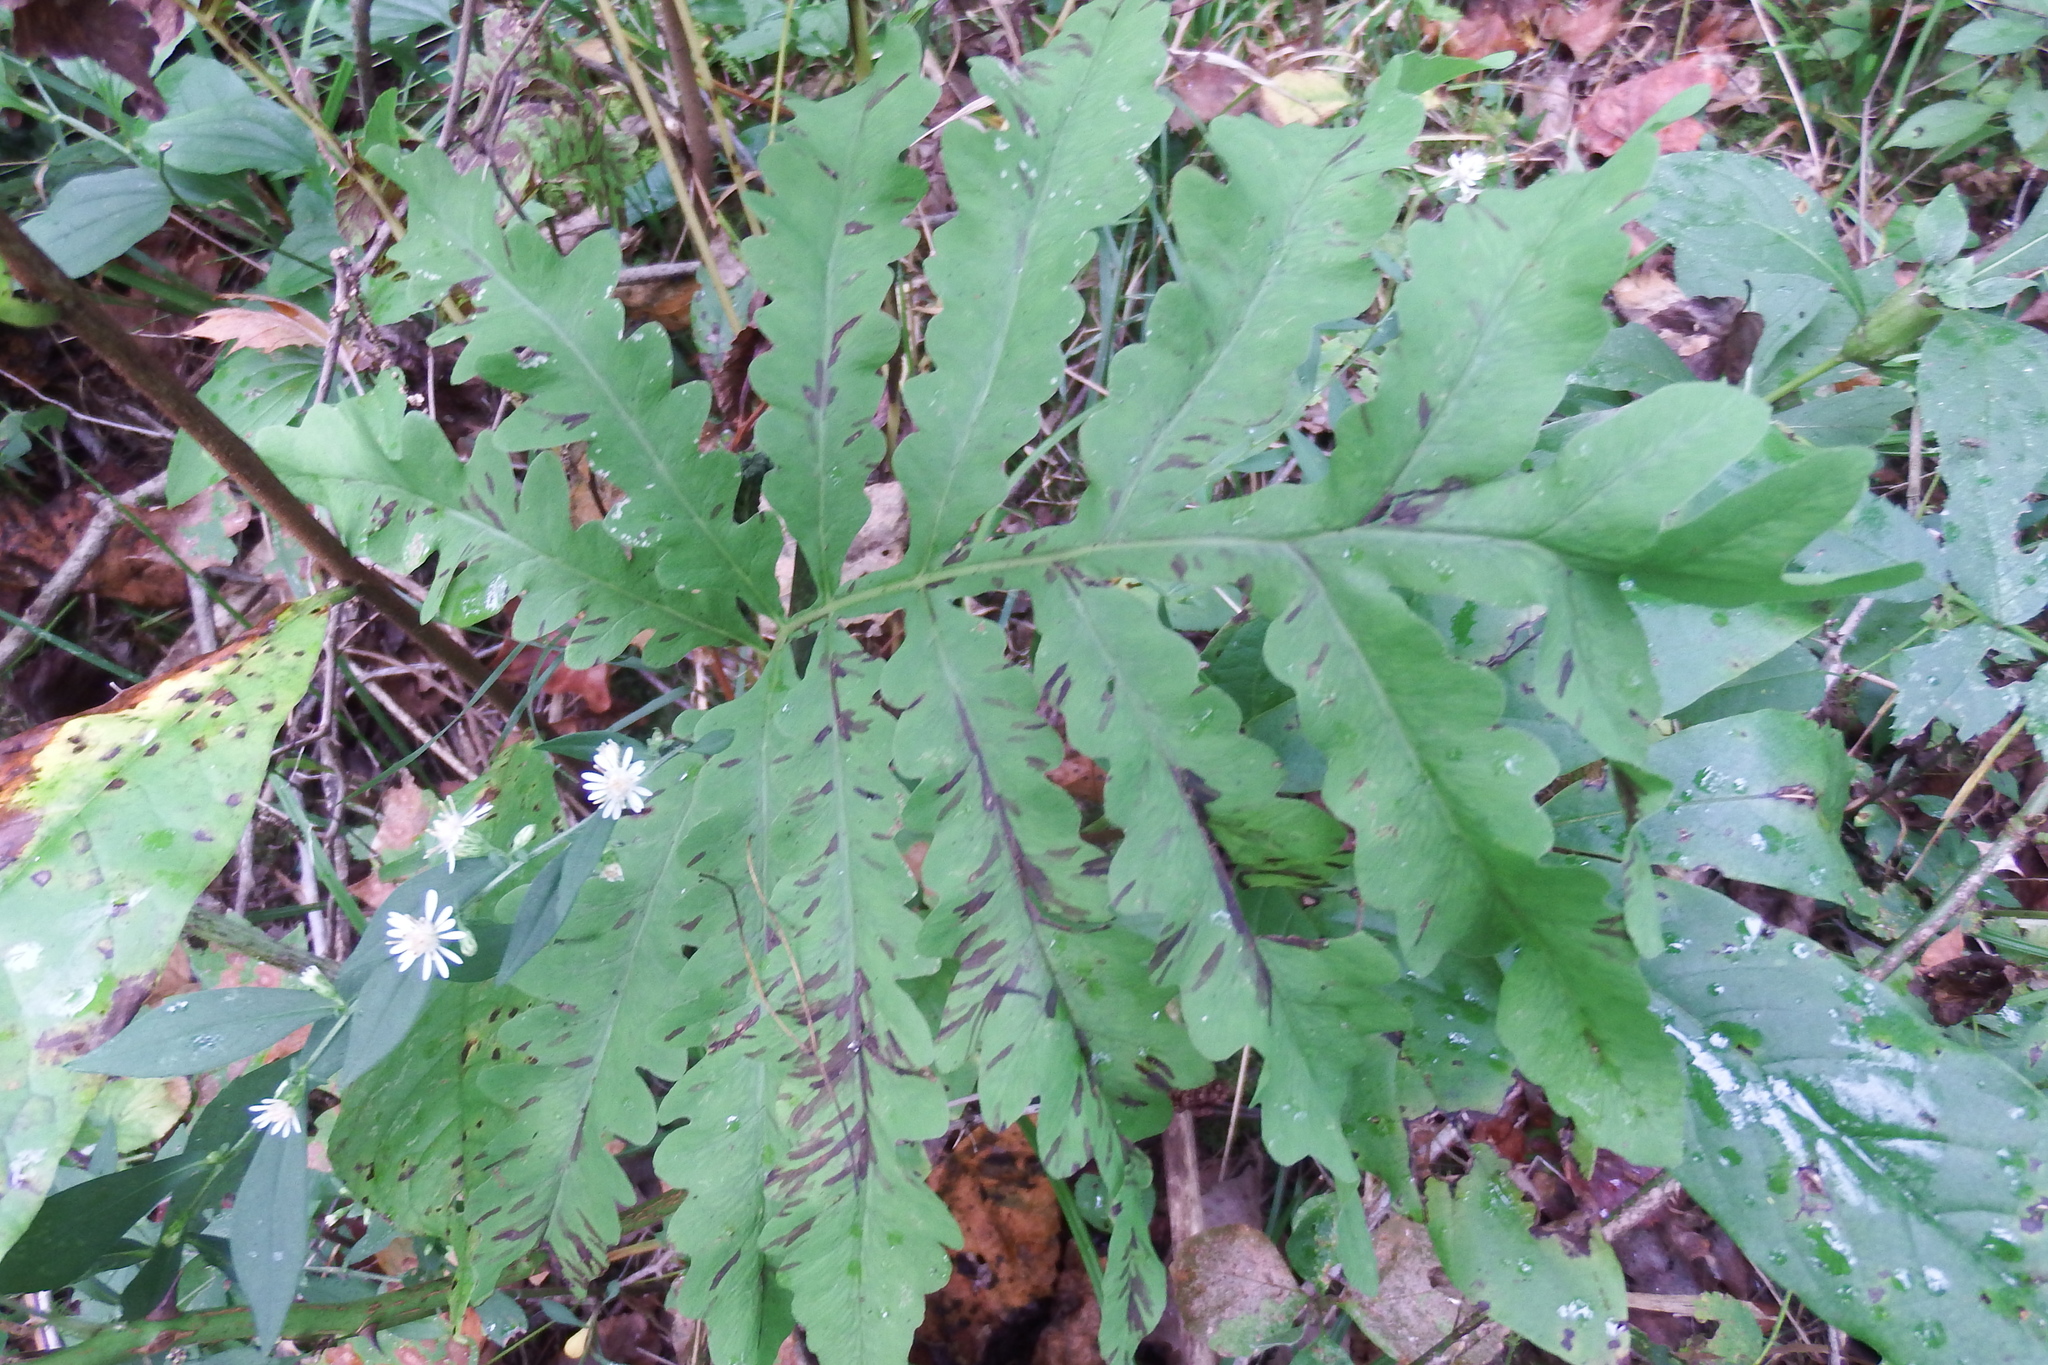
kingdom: Plantae
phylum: Tracheophyta
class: Polypodiopsida
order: Polypodiales
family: Onocleaceae
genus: Onoclea
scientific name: Onoclea sensibilis
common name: Sensitive fern
